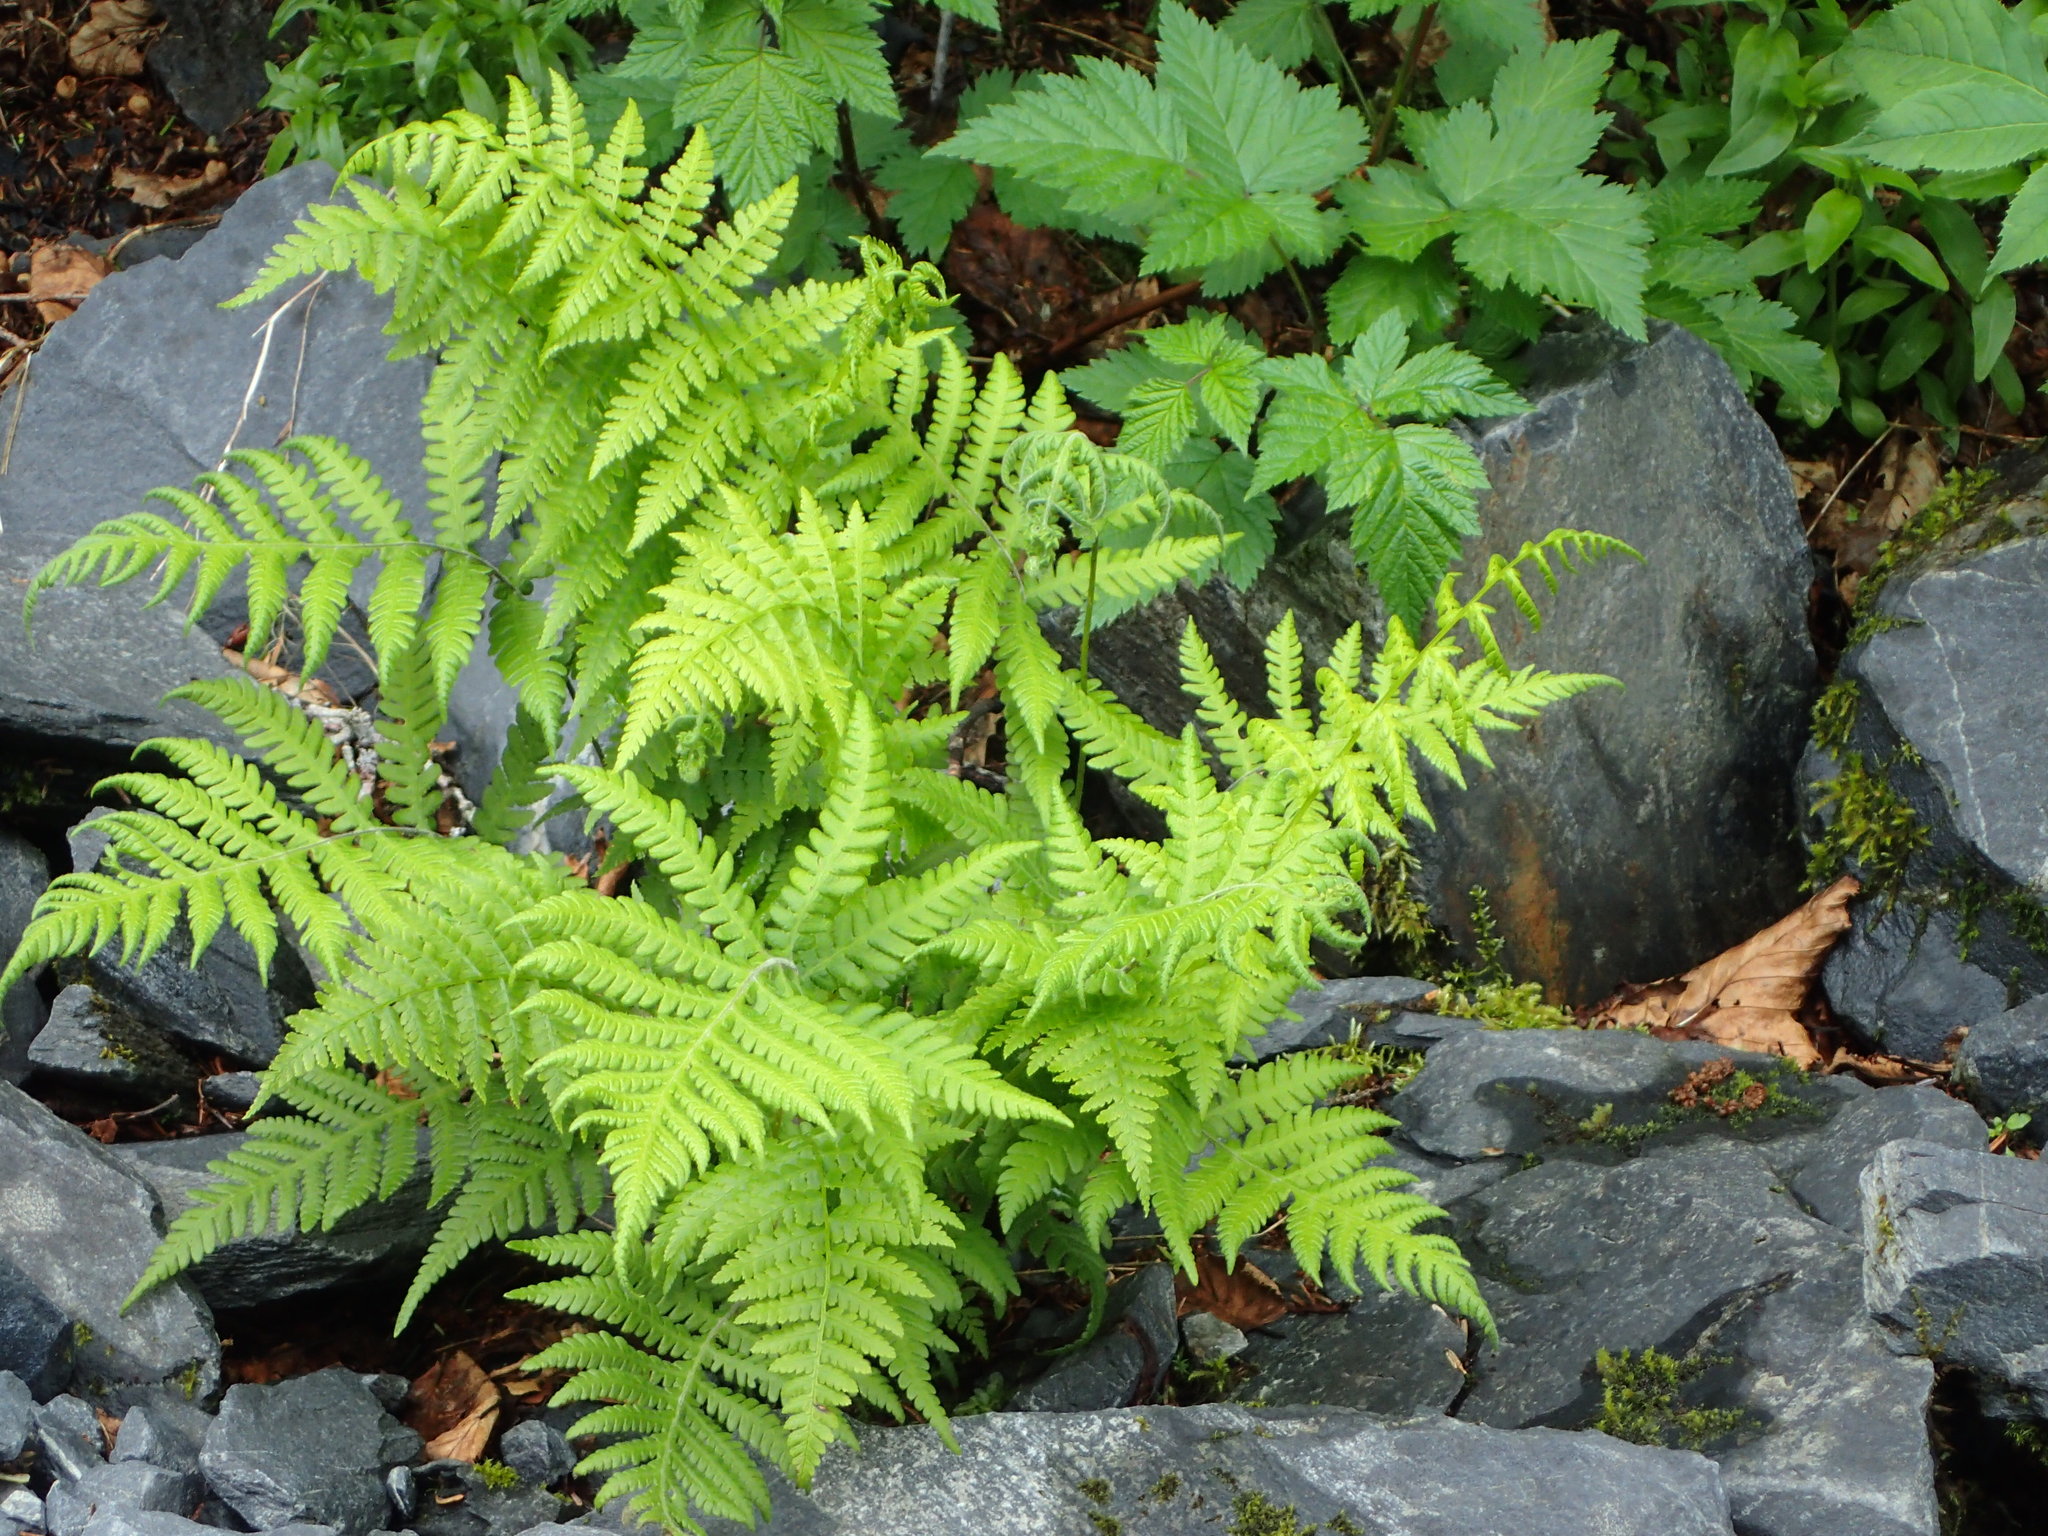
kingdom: Plantae
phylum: Tracheophyta
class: Polypodiopsida
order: Polypodiales
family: Thelypteridaceae
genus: Phegopteris
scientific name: Phegopteris connectilis
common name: Beech fern
